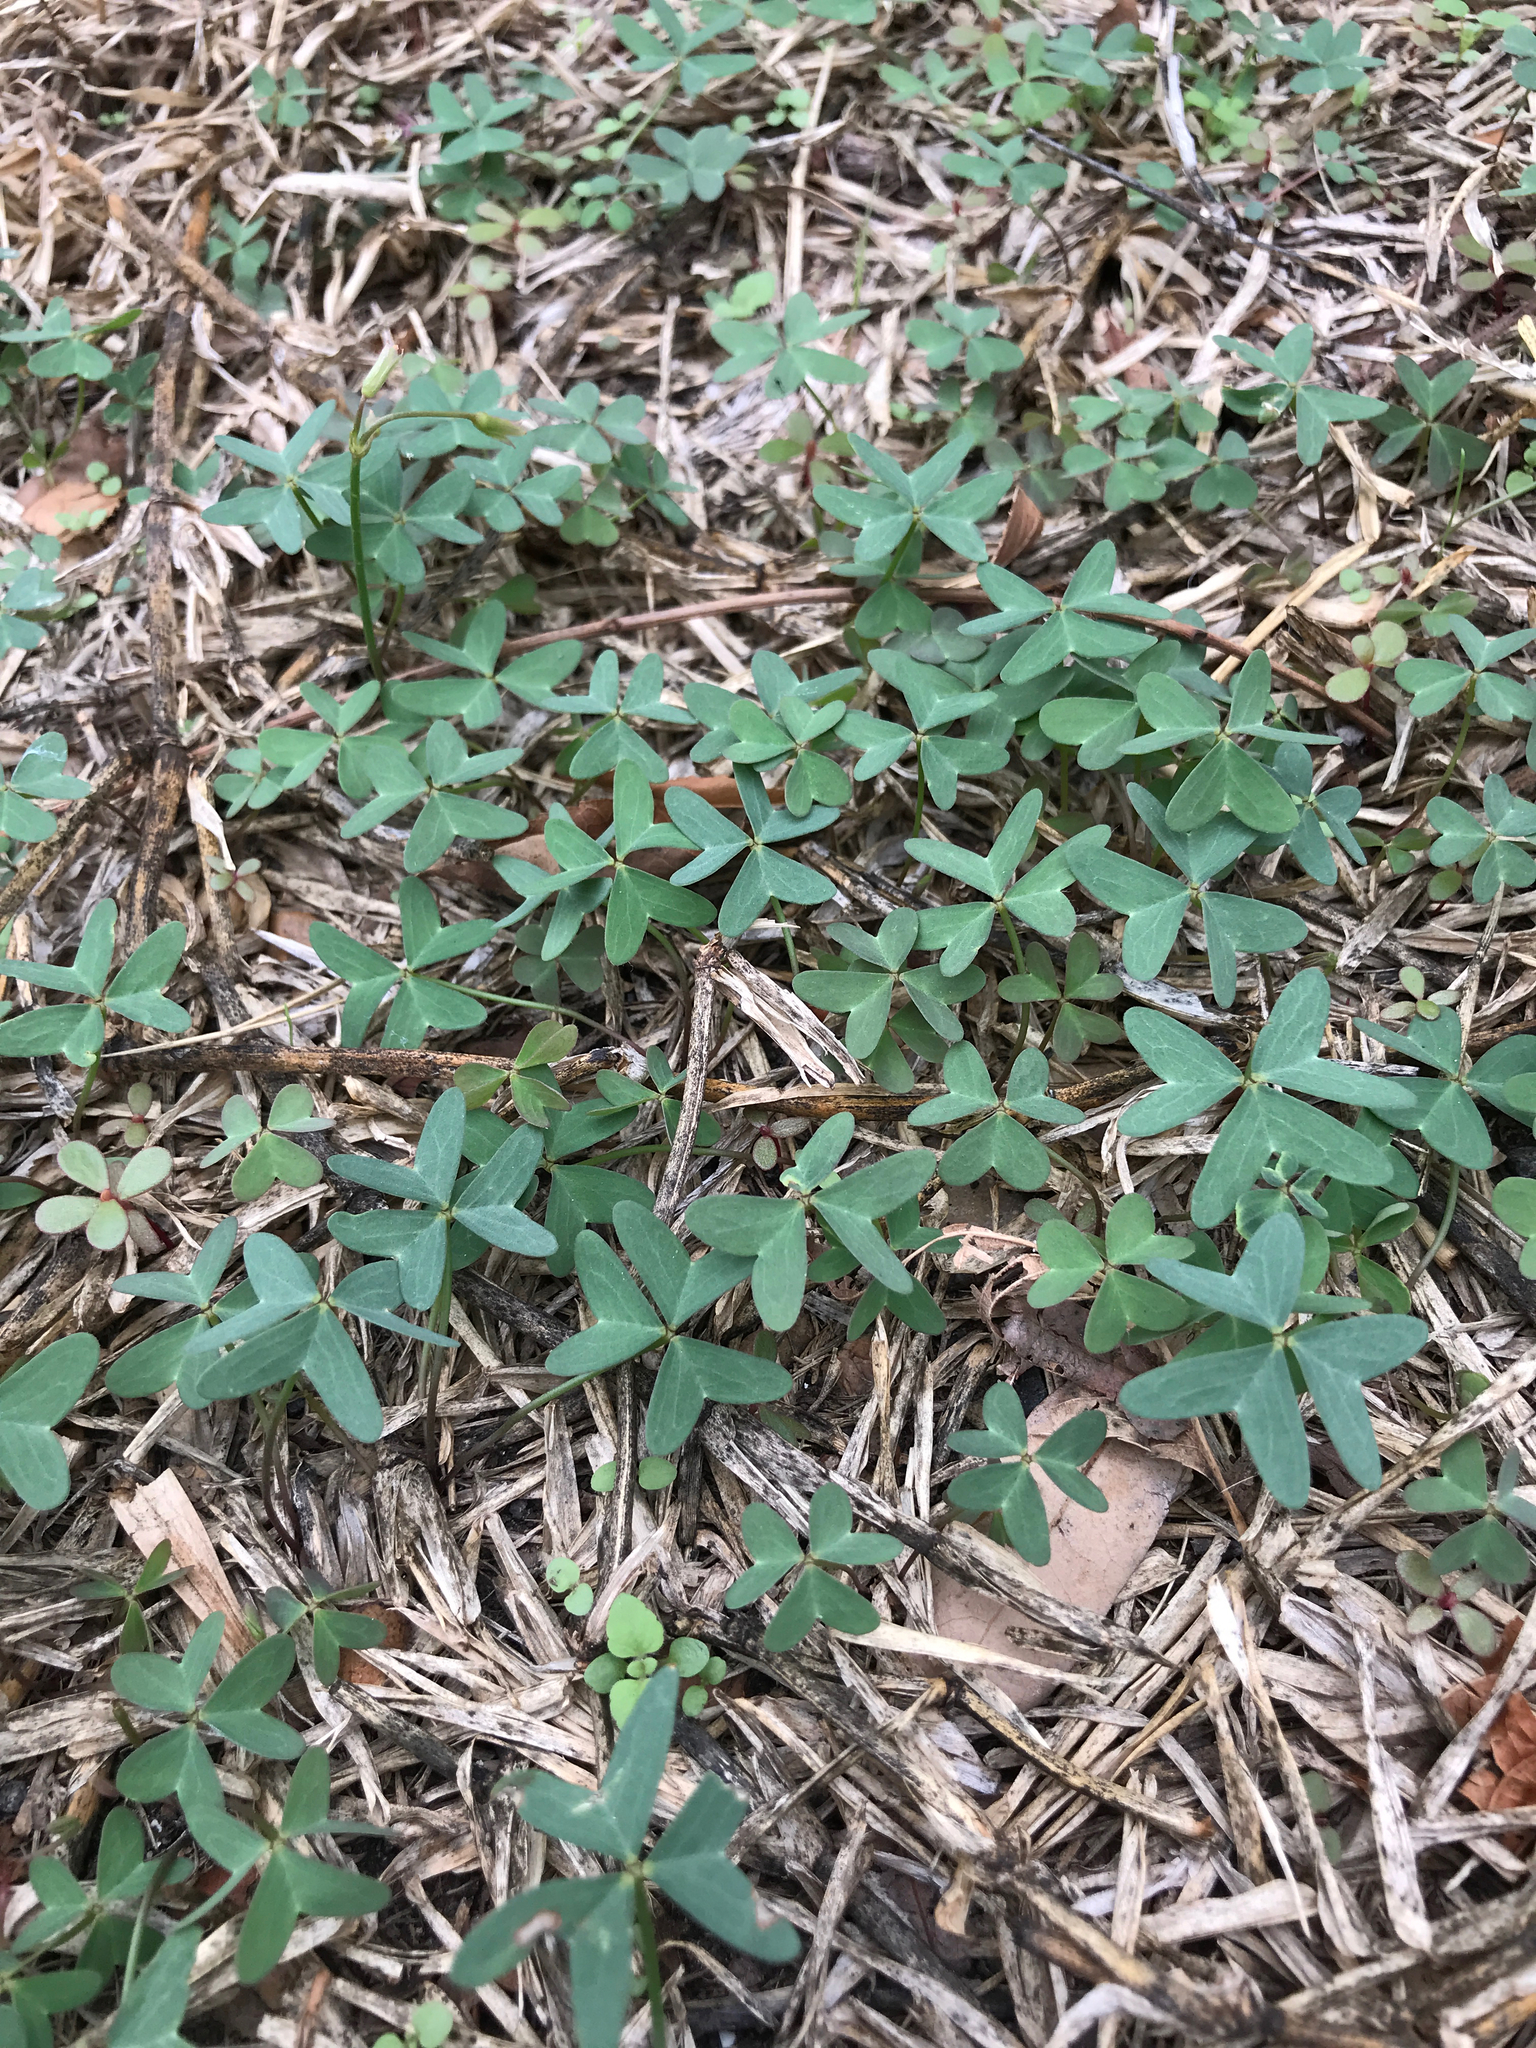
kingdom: Plantae
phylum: Tracheophyta
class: Magnoliopsida
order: Oxalidales
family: Oxalidaceae
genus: Oxalis
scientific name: Oxalis drummondii
